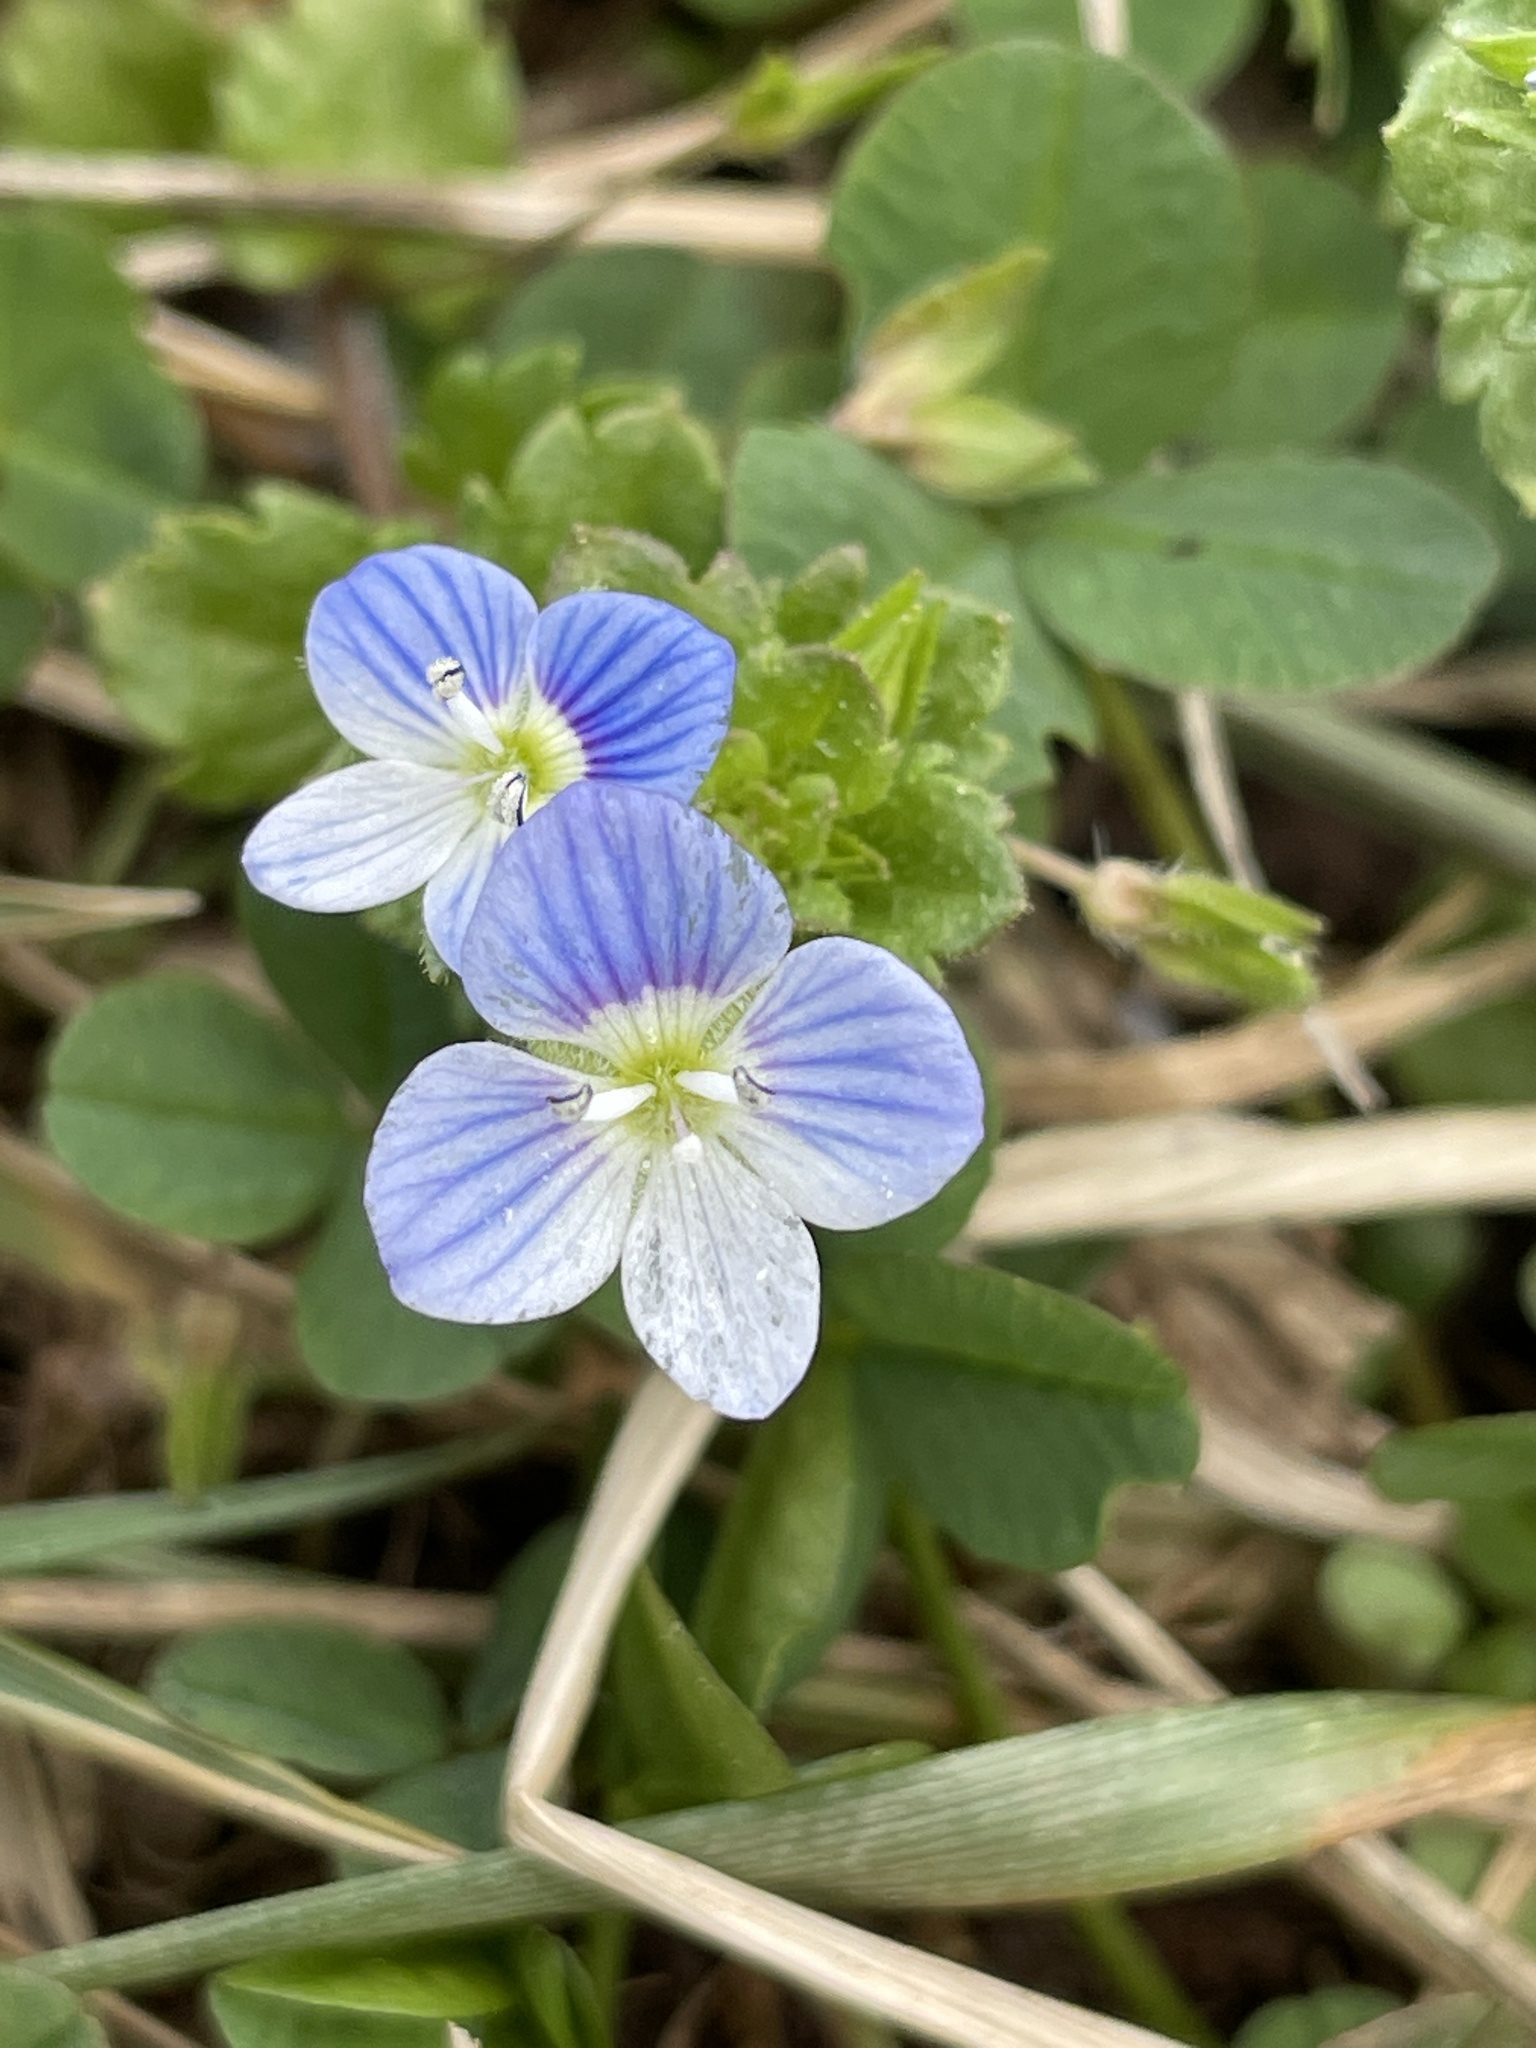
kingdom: Plantae
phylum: Tracheophyta
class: Magnoliopsida
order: Lamiales
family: Plantaginaceae
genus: Veronica
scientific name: Veronica persica
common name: Common field-speedwell
